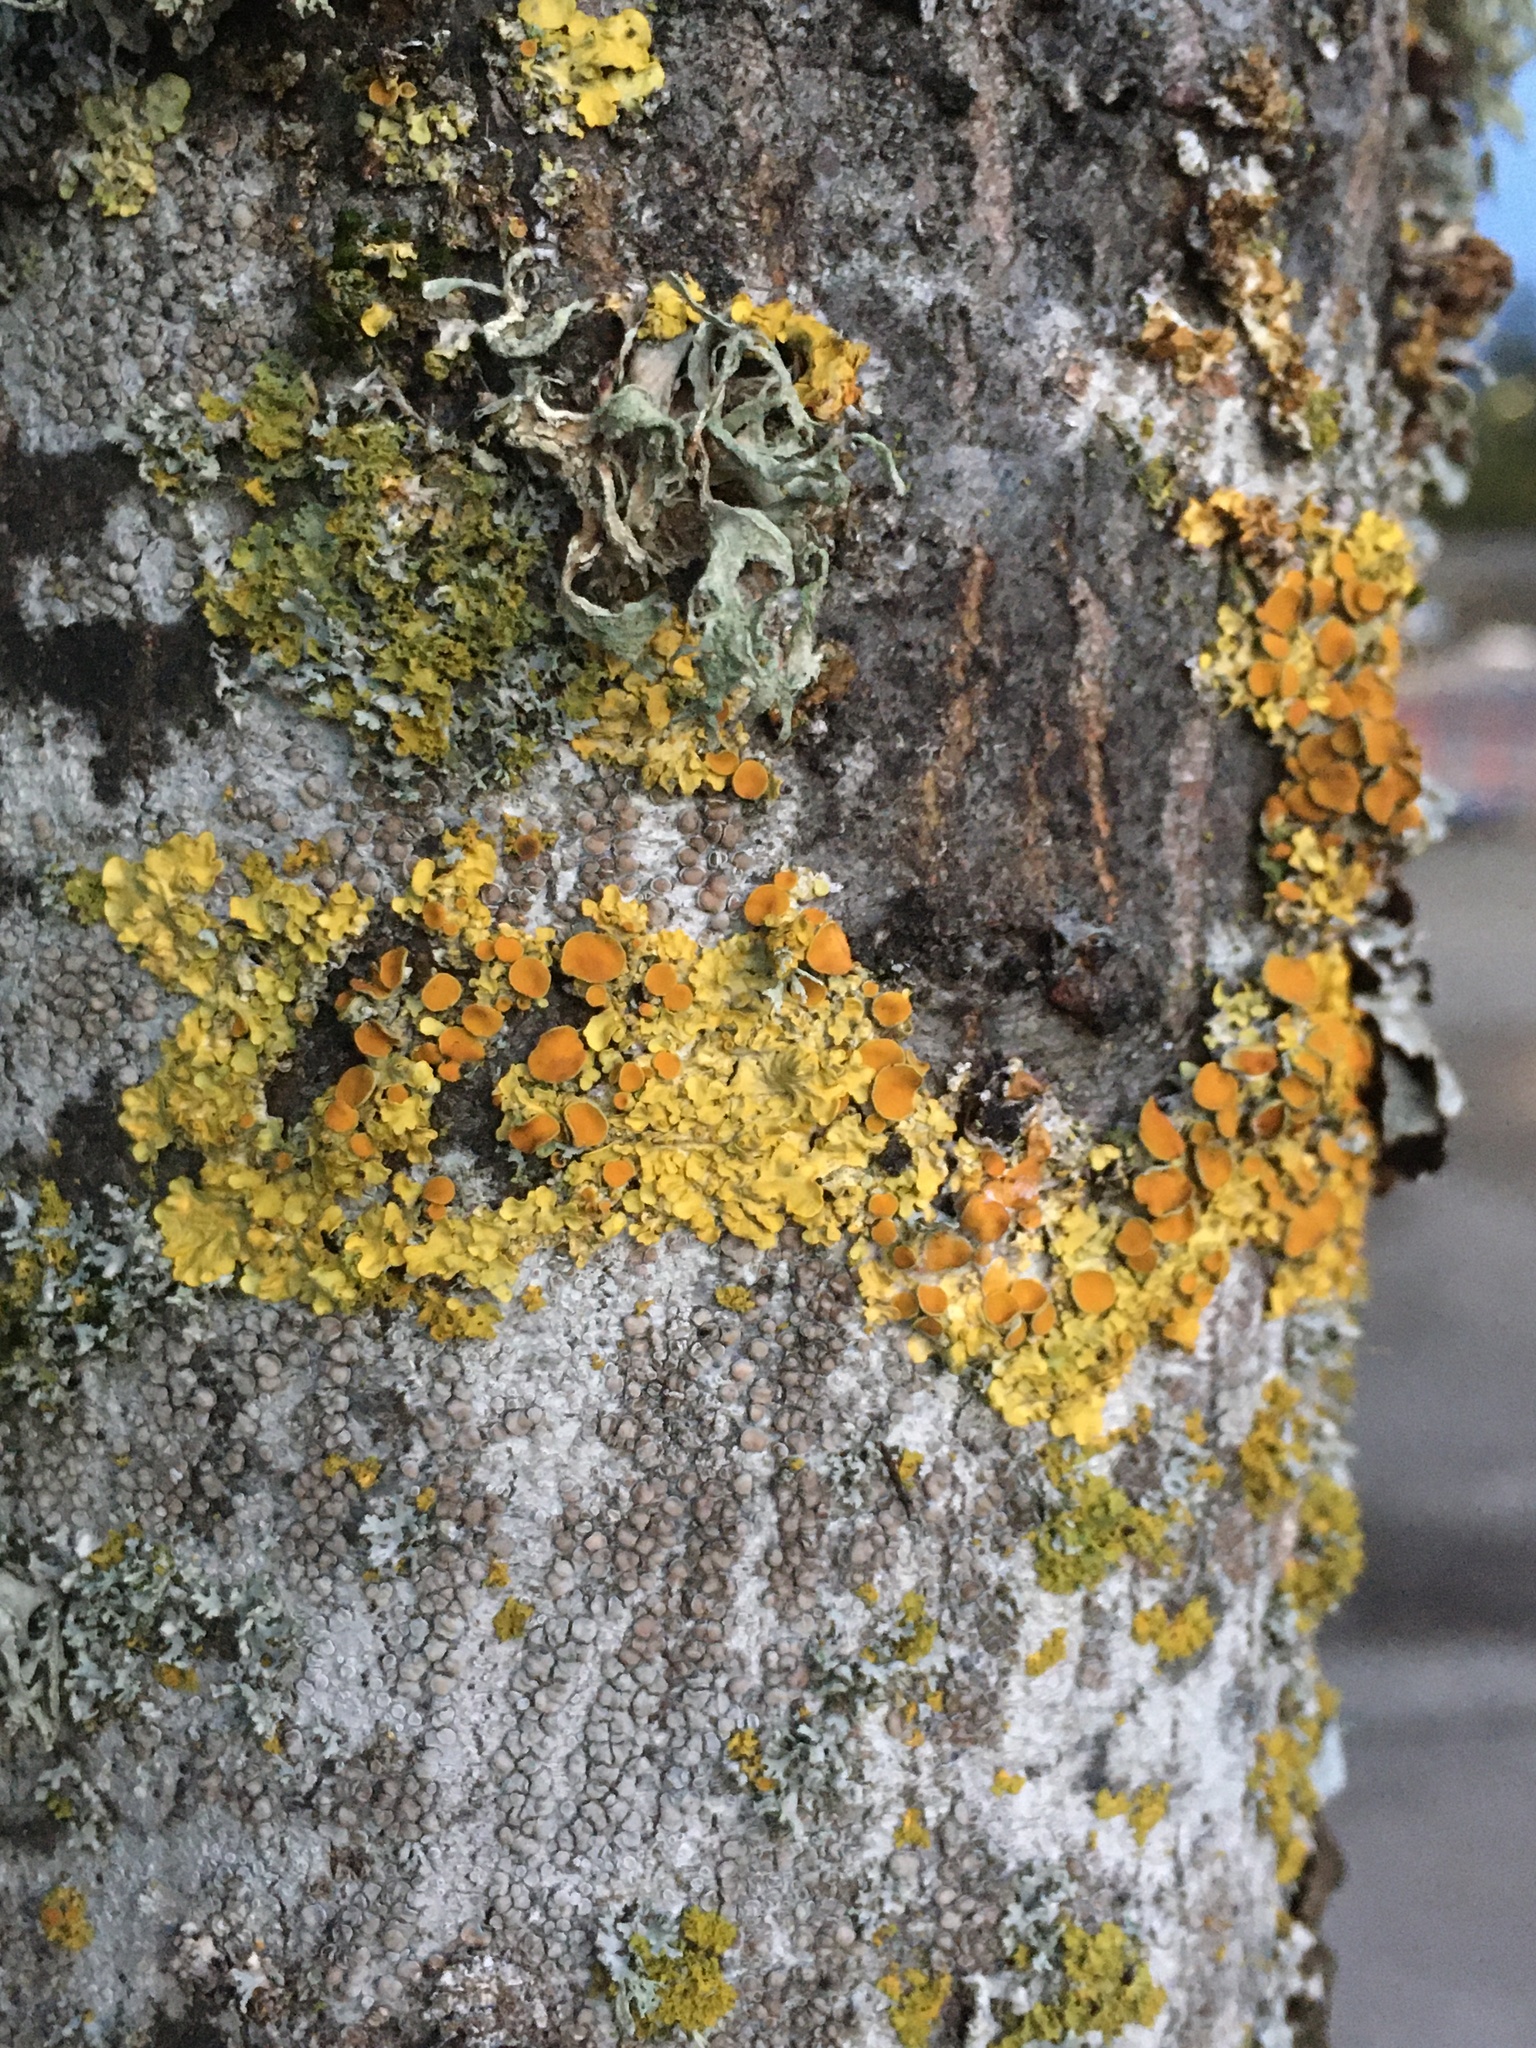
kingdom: Fungi
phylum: Ascomycota
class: Lecanoromycetes
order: Teloschistales
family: Teloschistaceae
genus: Xanthoria
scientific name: Xanthoria parietina
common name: Common orange lichen
